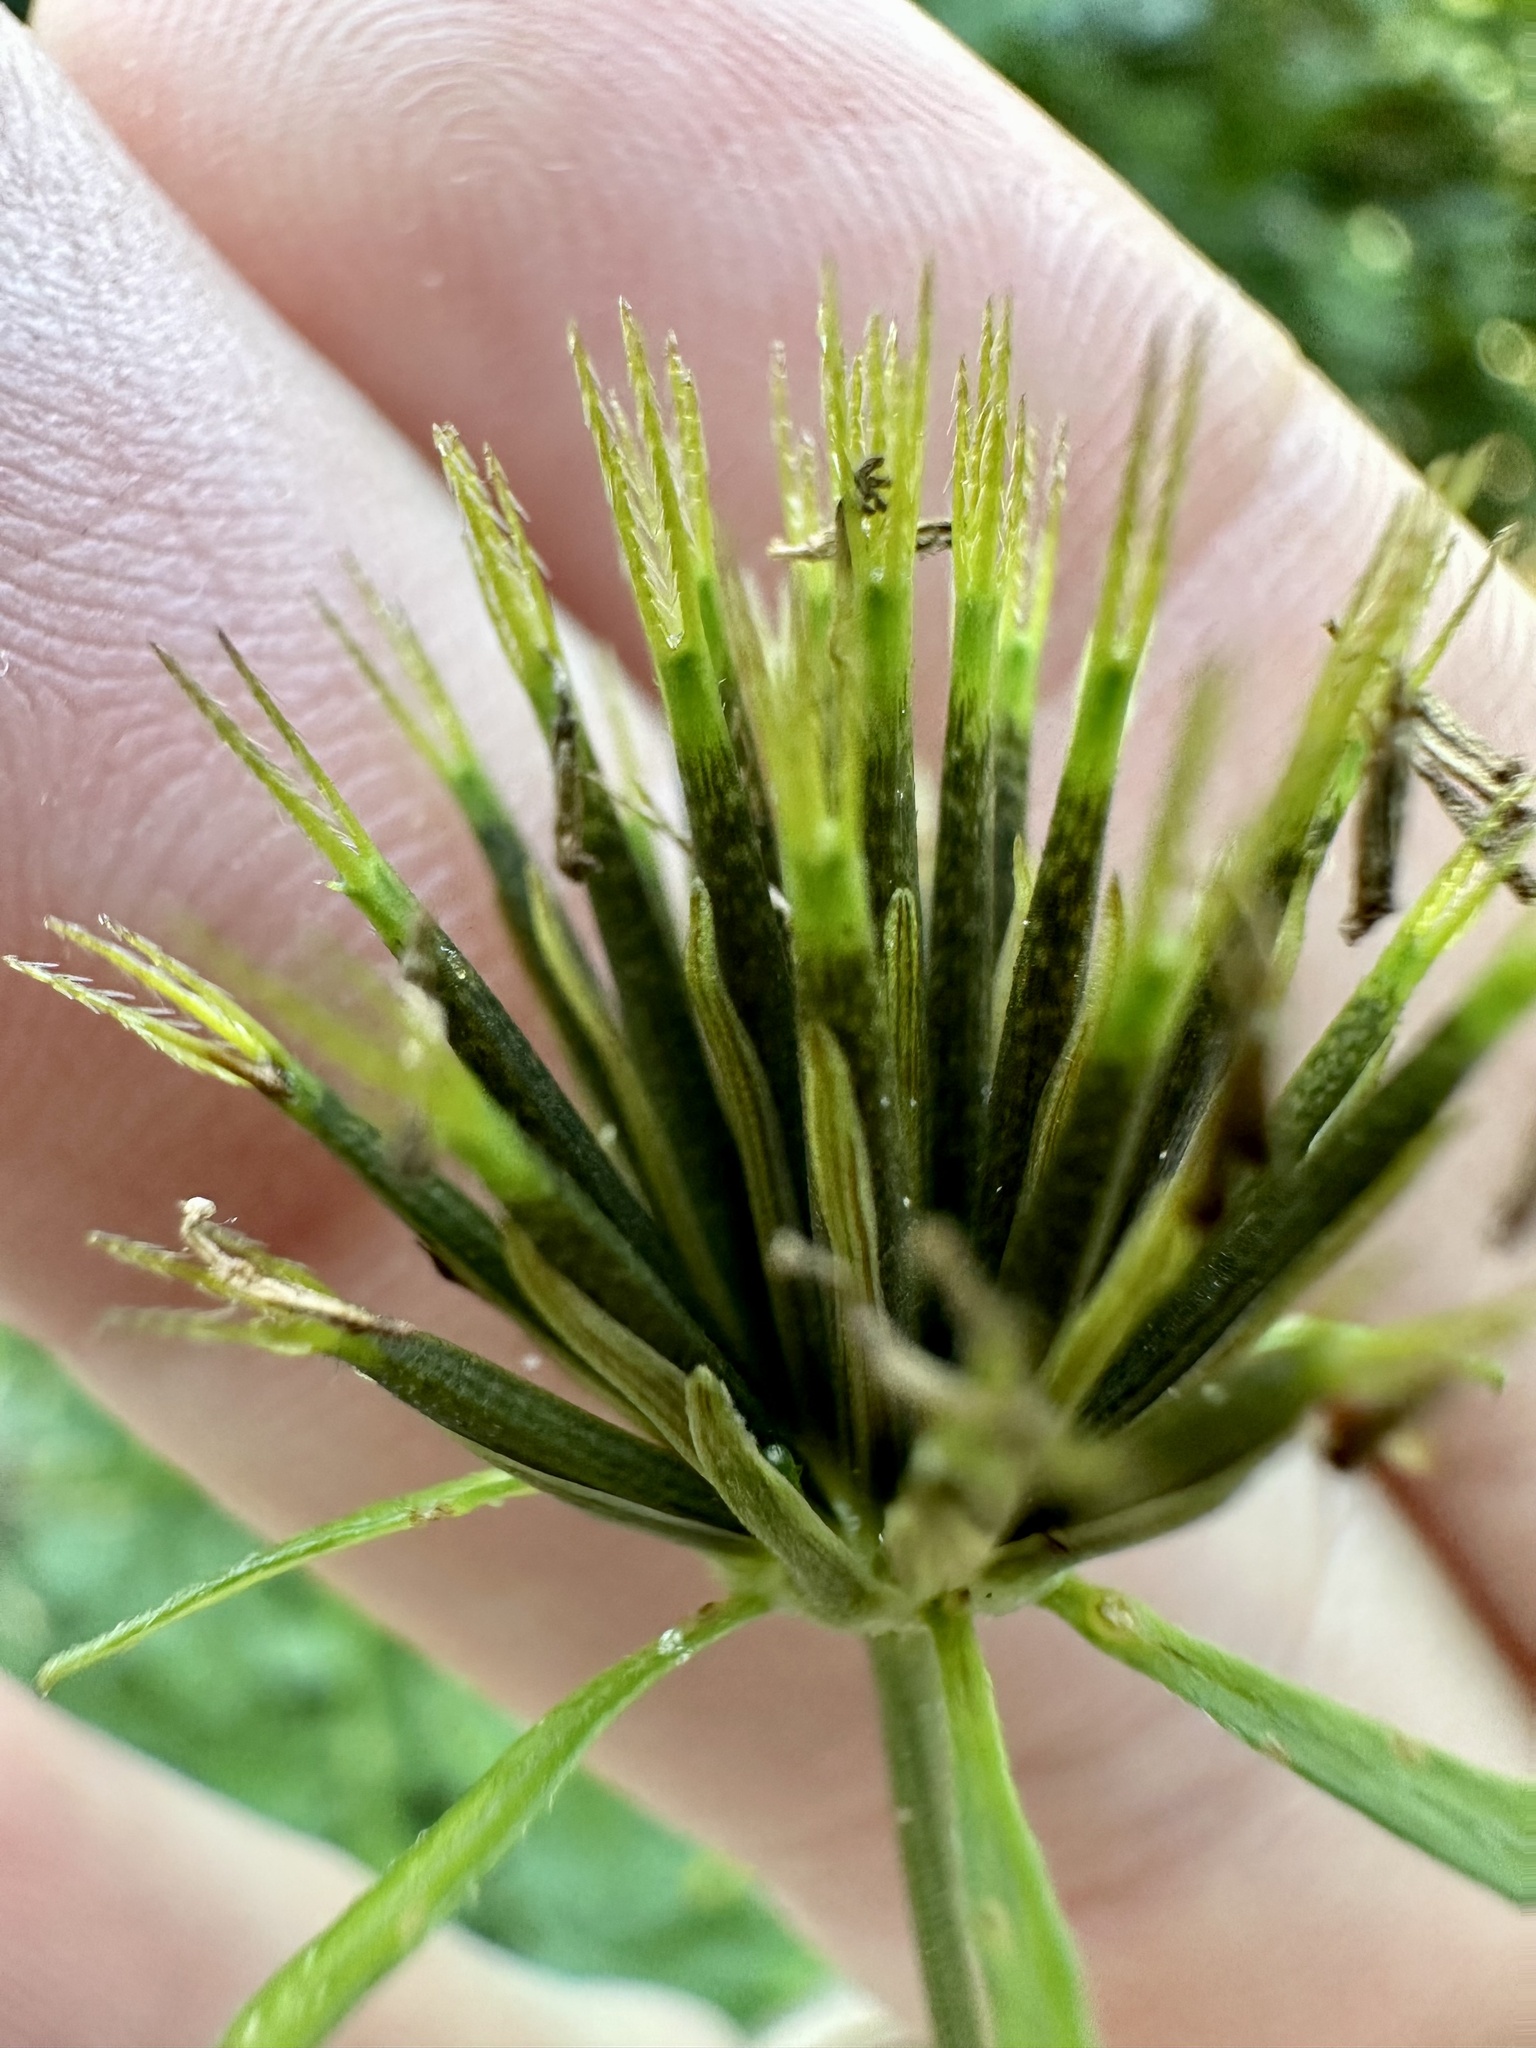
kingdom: Plantae
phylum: Tracheophyta
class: Magnoliopsida
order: Asterales
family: Asteraceae
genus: Bidens
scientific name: Bidens bipinnata
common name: Spanish-needles
